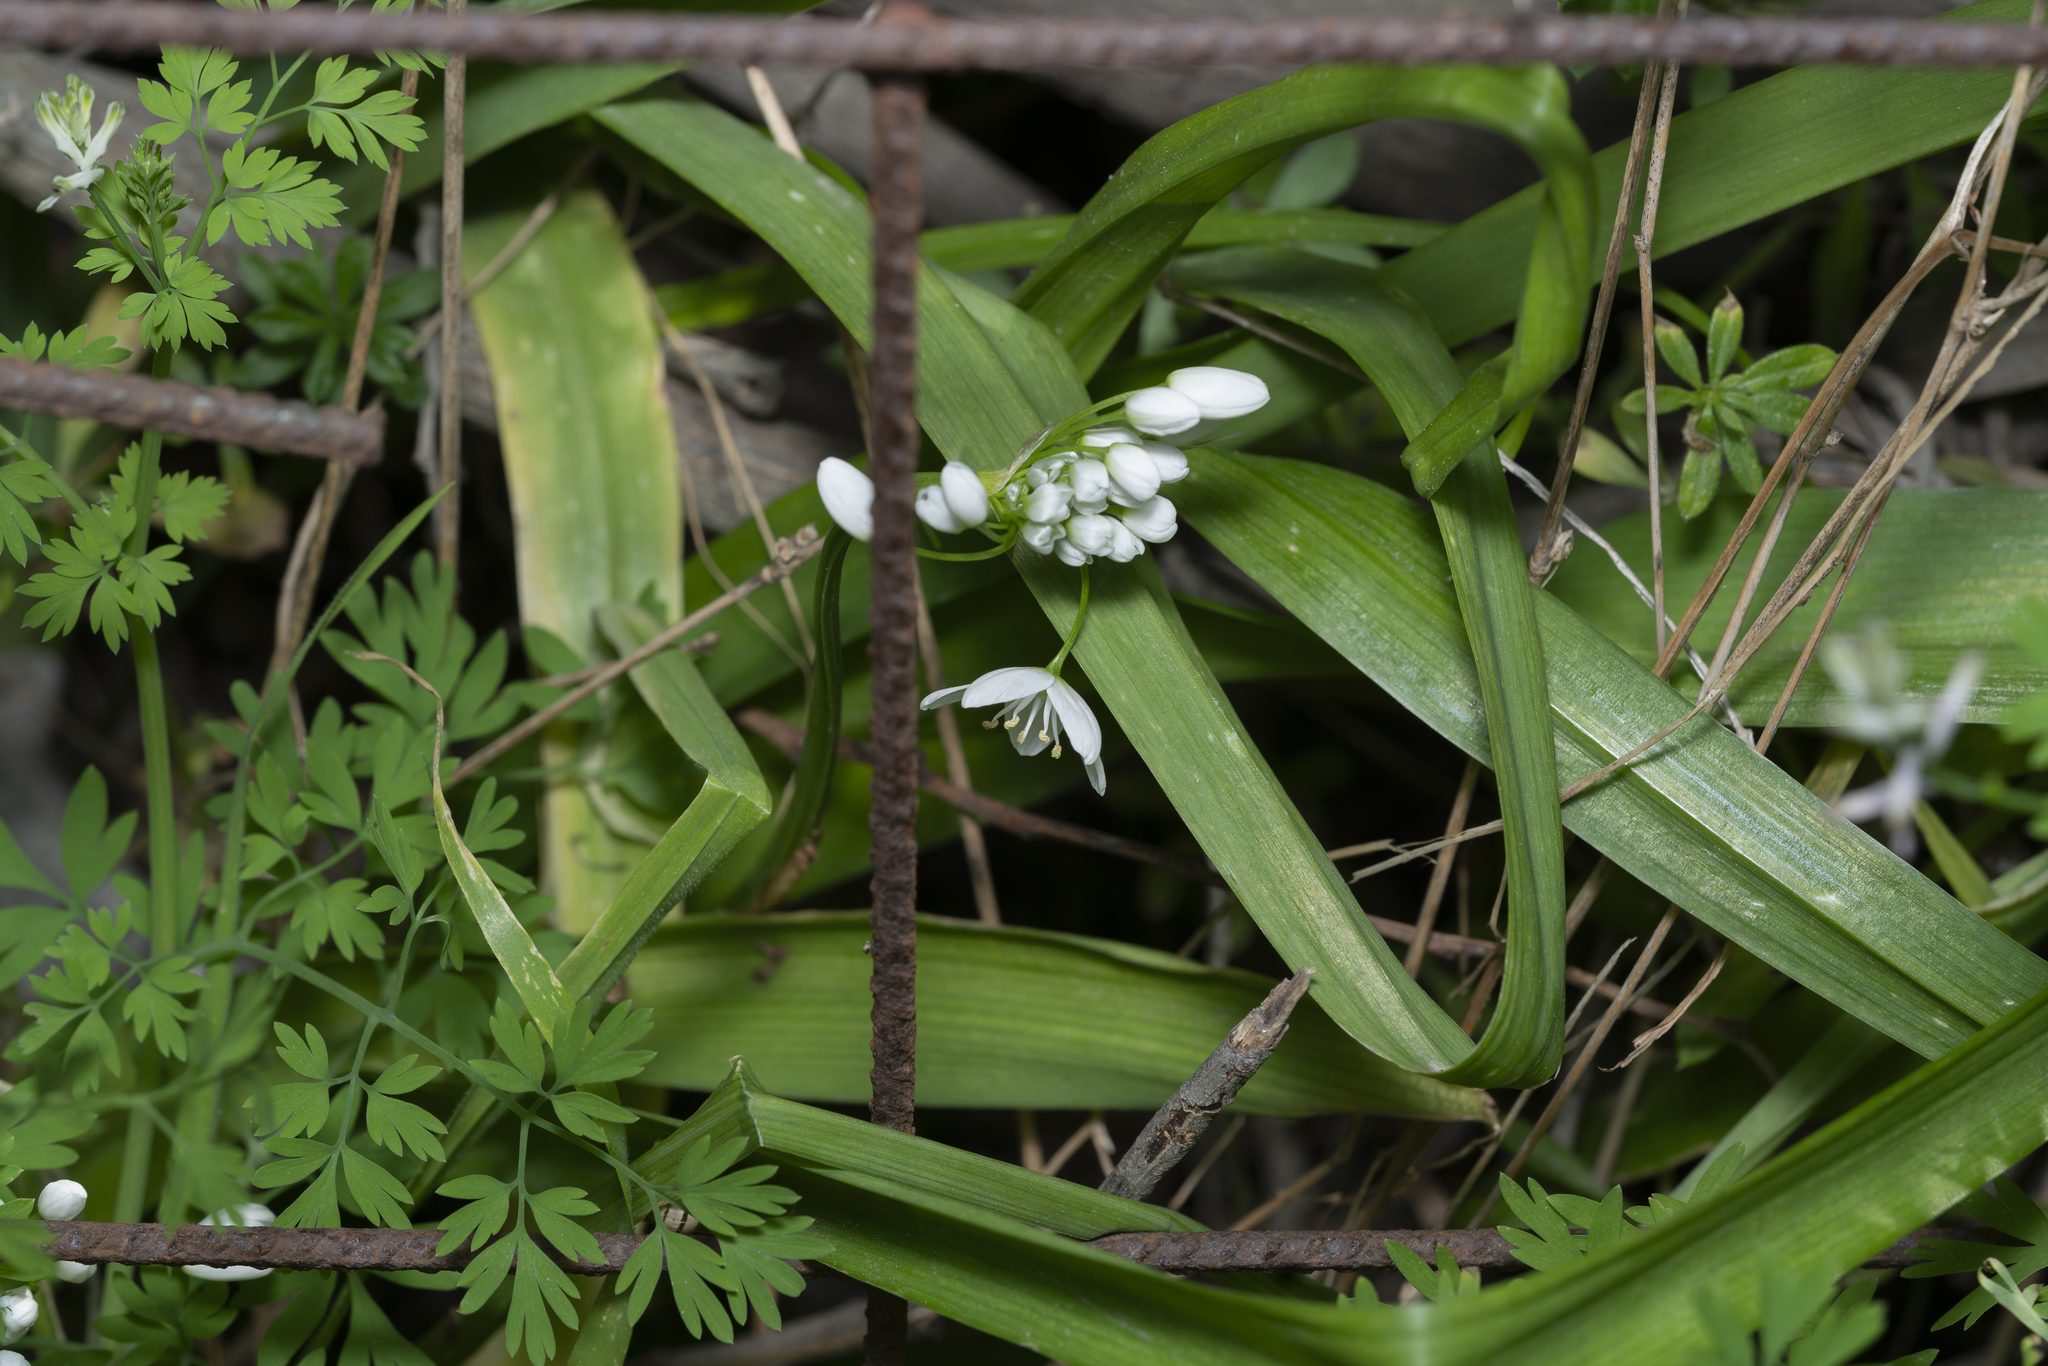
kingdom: Plantae
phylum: Tracheophyta
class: Liliopsida
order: Asparagales
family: Amaryllidaceae
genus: Allium
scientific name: Allium neapolitanum
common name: Neapolitan garlic
